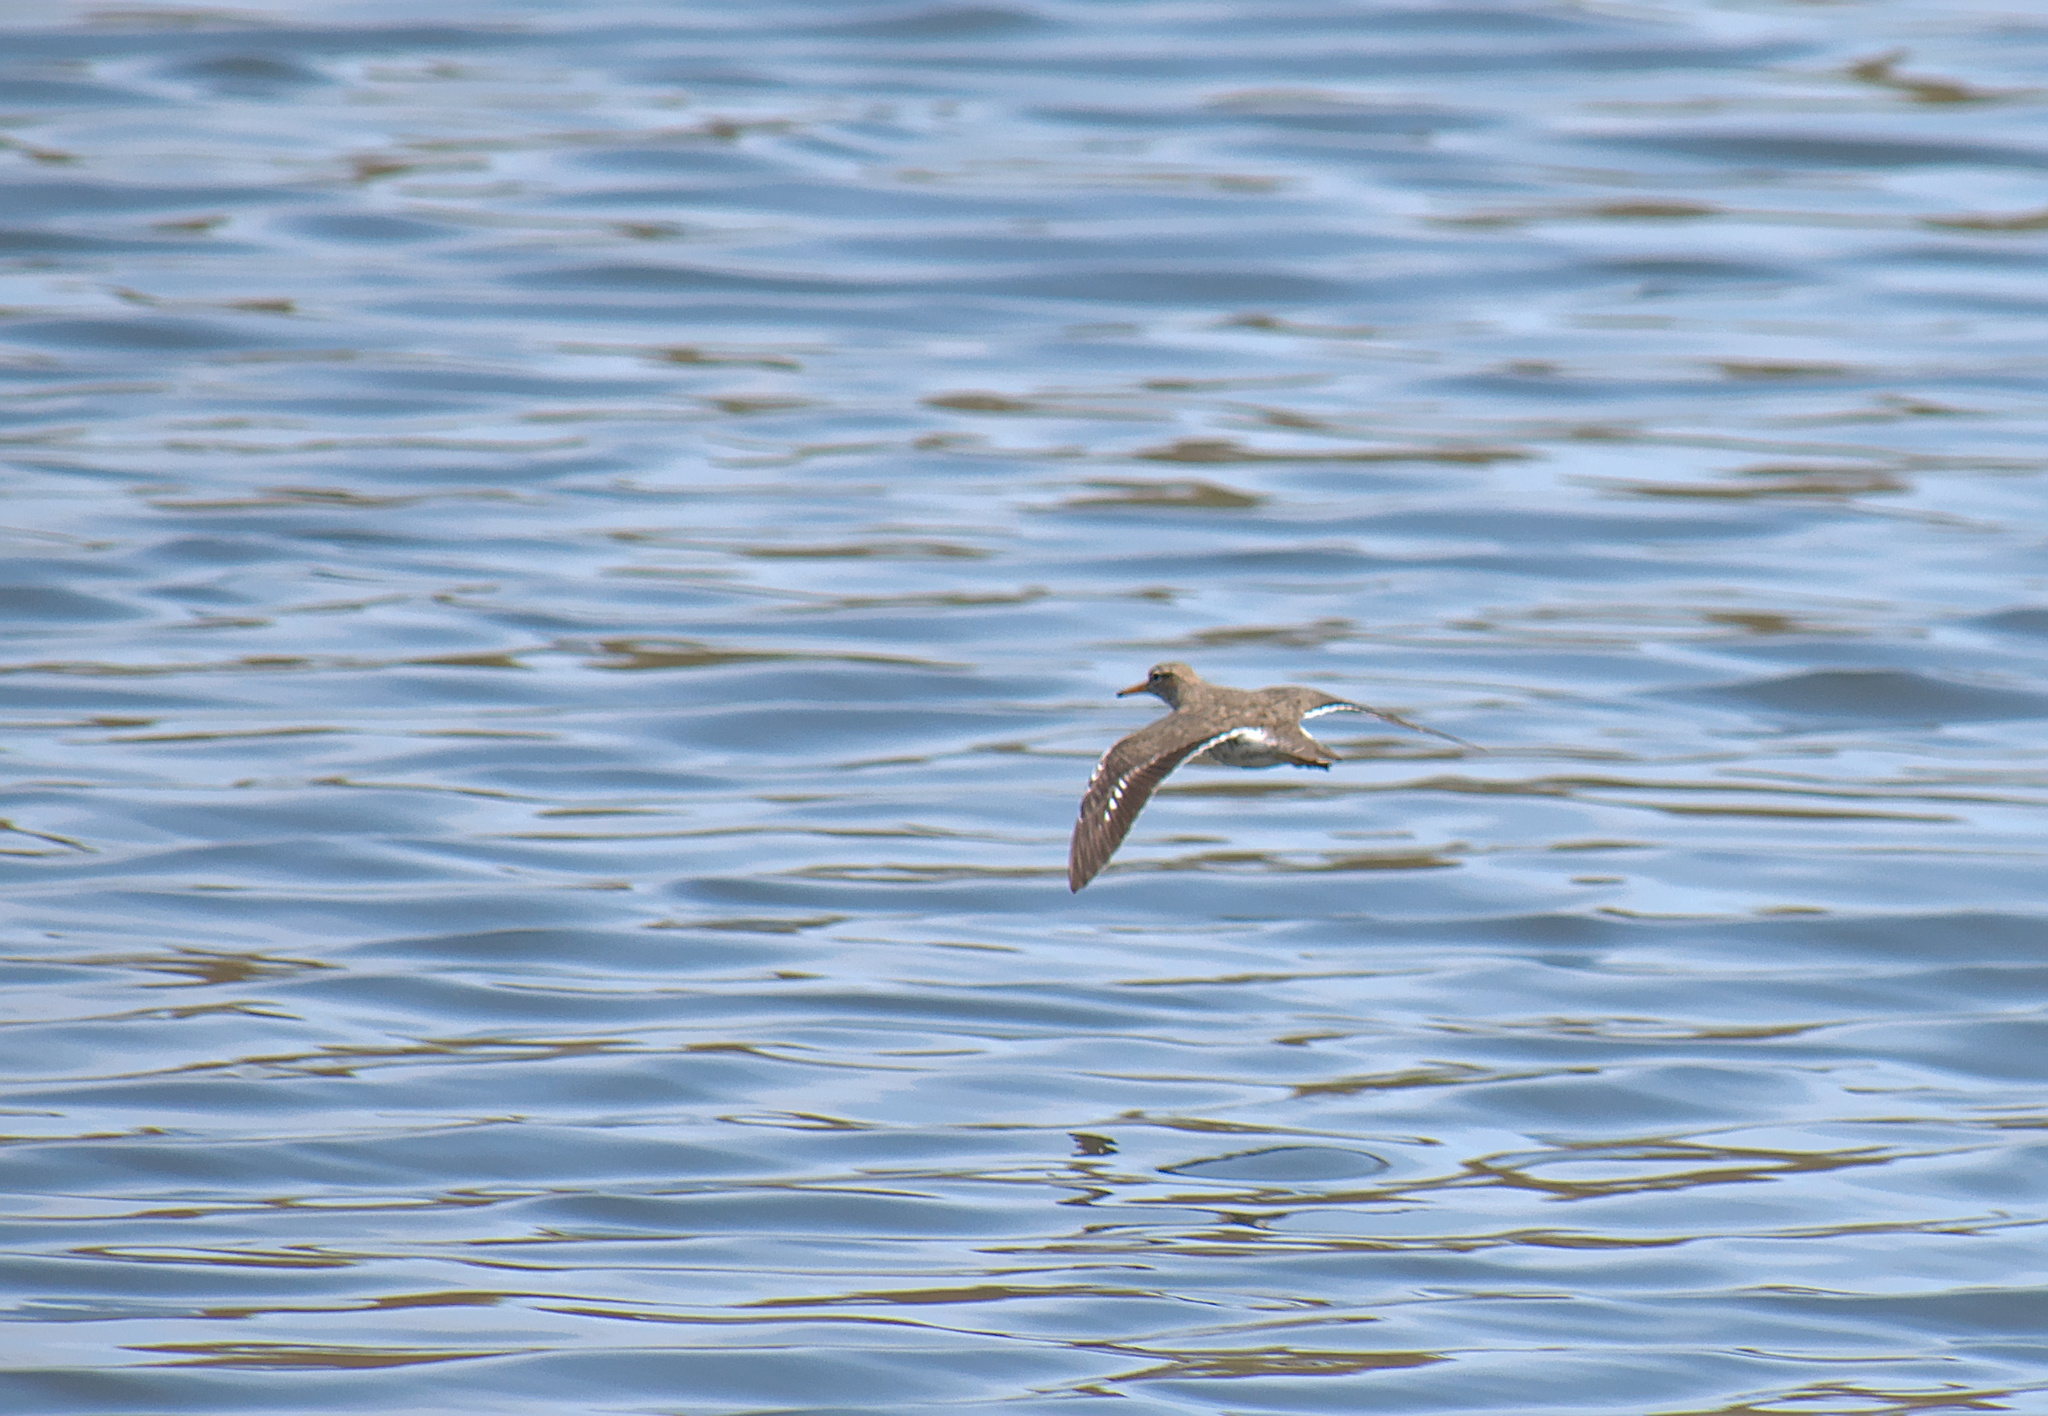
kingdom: Animalia
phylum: Chordata
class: Aves
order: Charadriiformes
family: Scolopacidae
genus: Actitis
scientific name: Actitis macularius
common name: Spotted sandpiper
